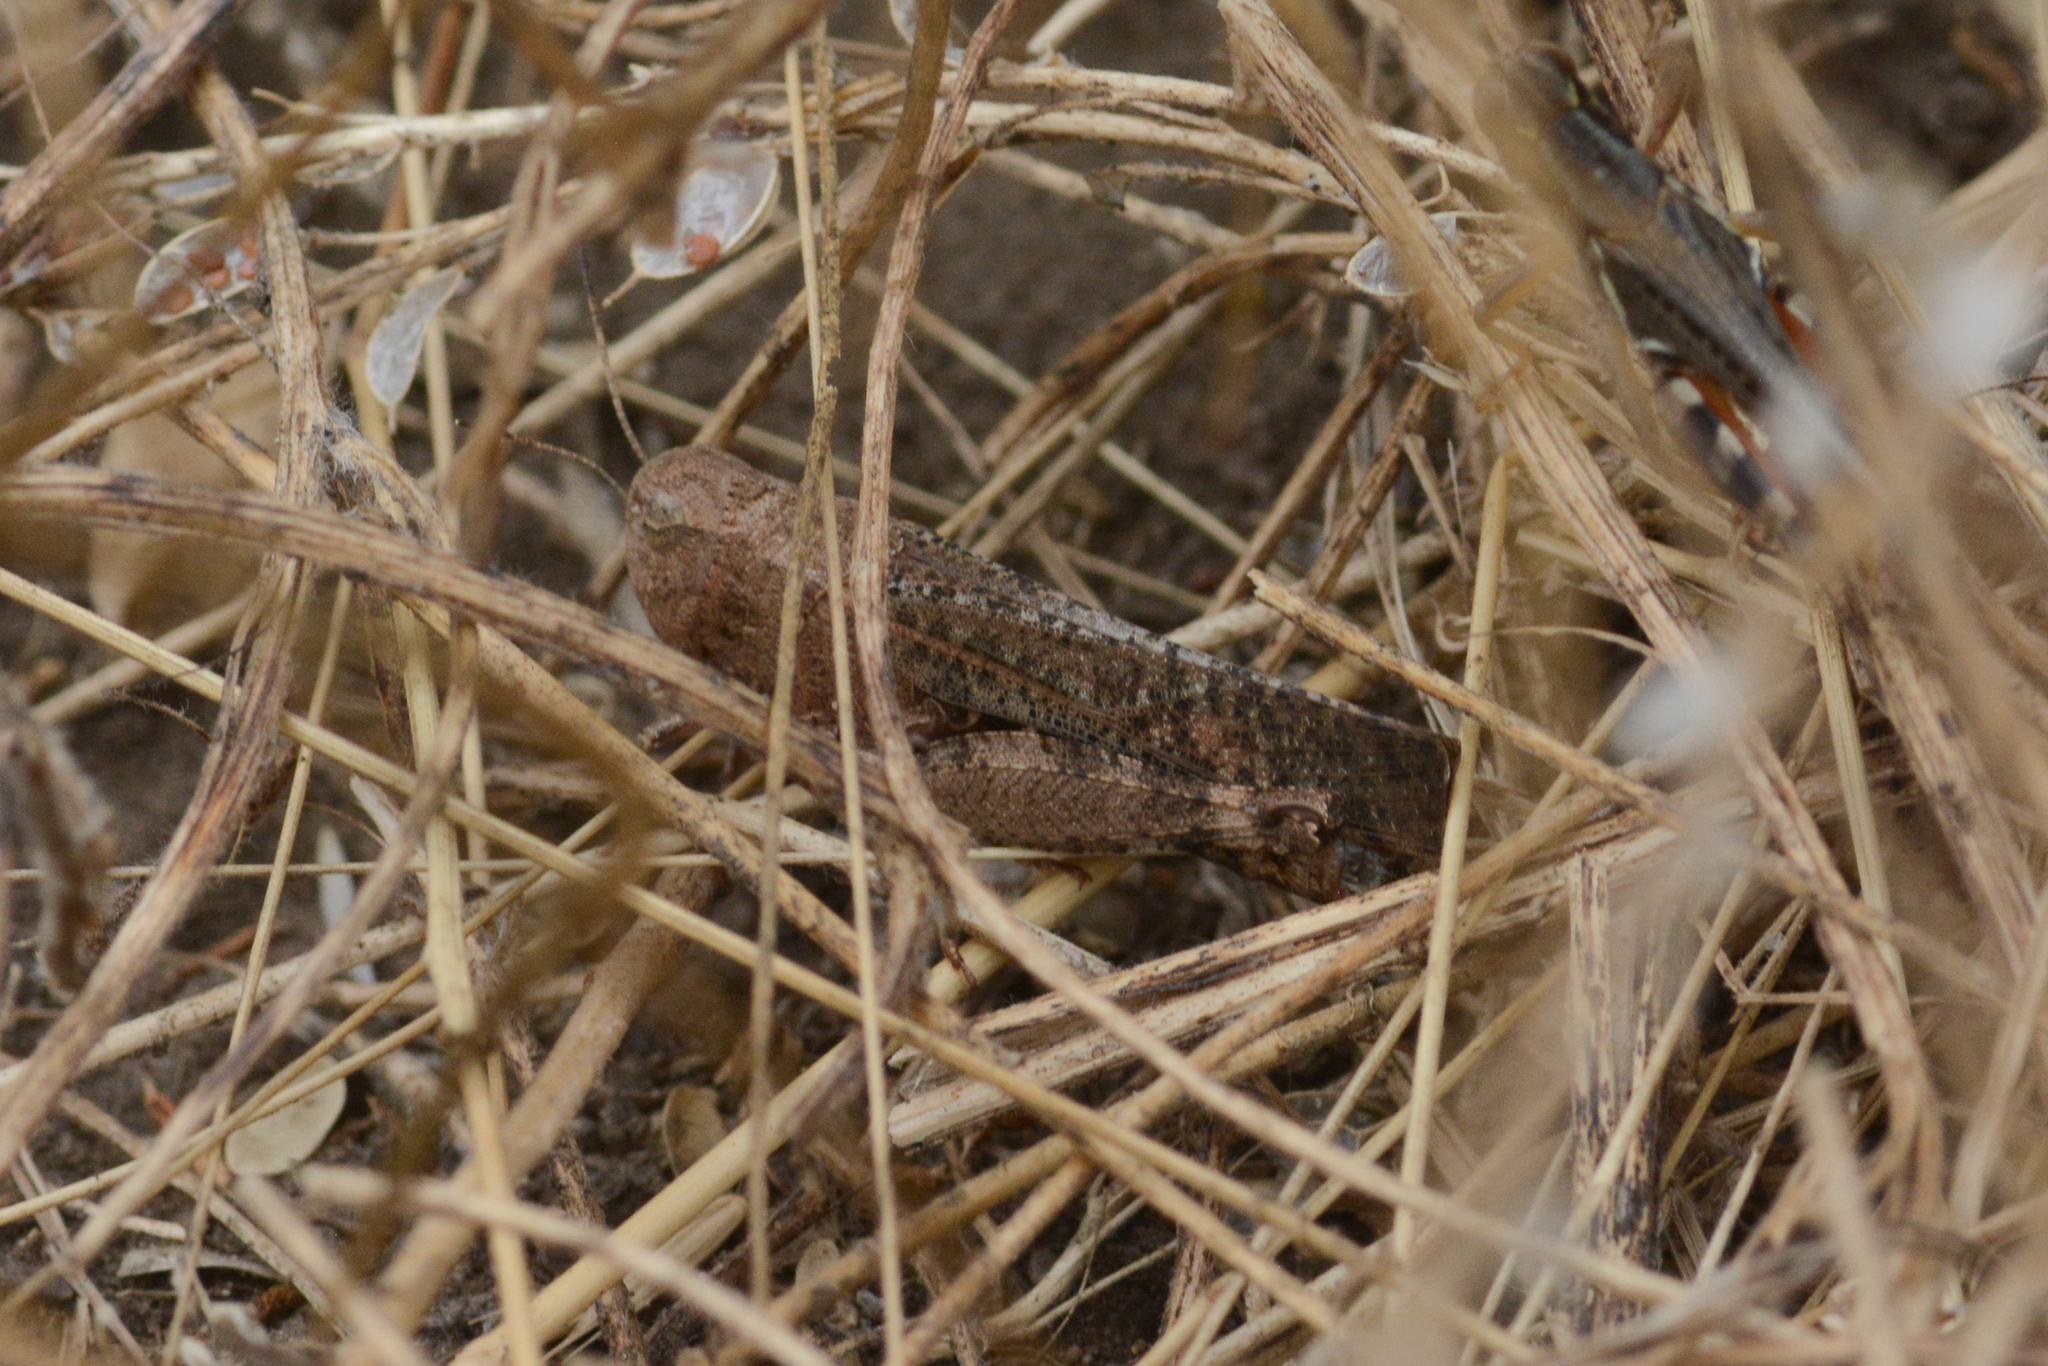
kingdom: Animalia
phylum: Arthropoda
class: Insecta
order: Orthoptera
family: Acrididae
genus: Arphia
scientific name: Arphia pseudo-nietana
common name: Red-winged grasshopper
